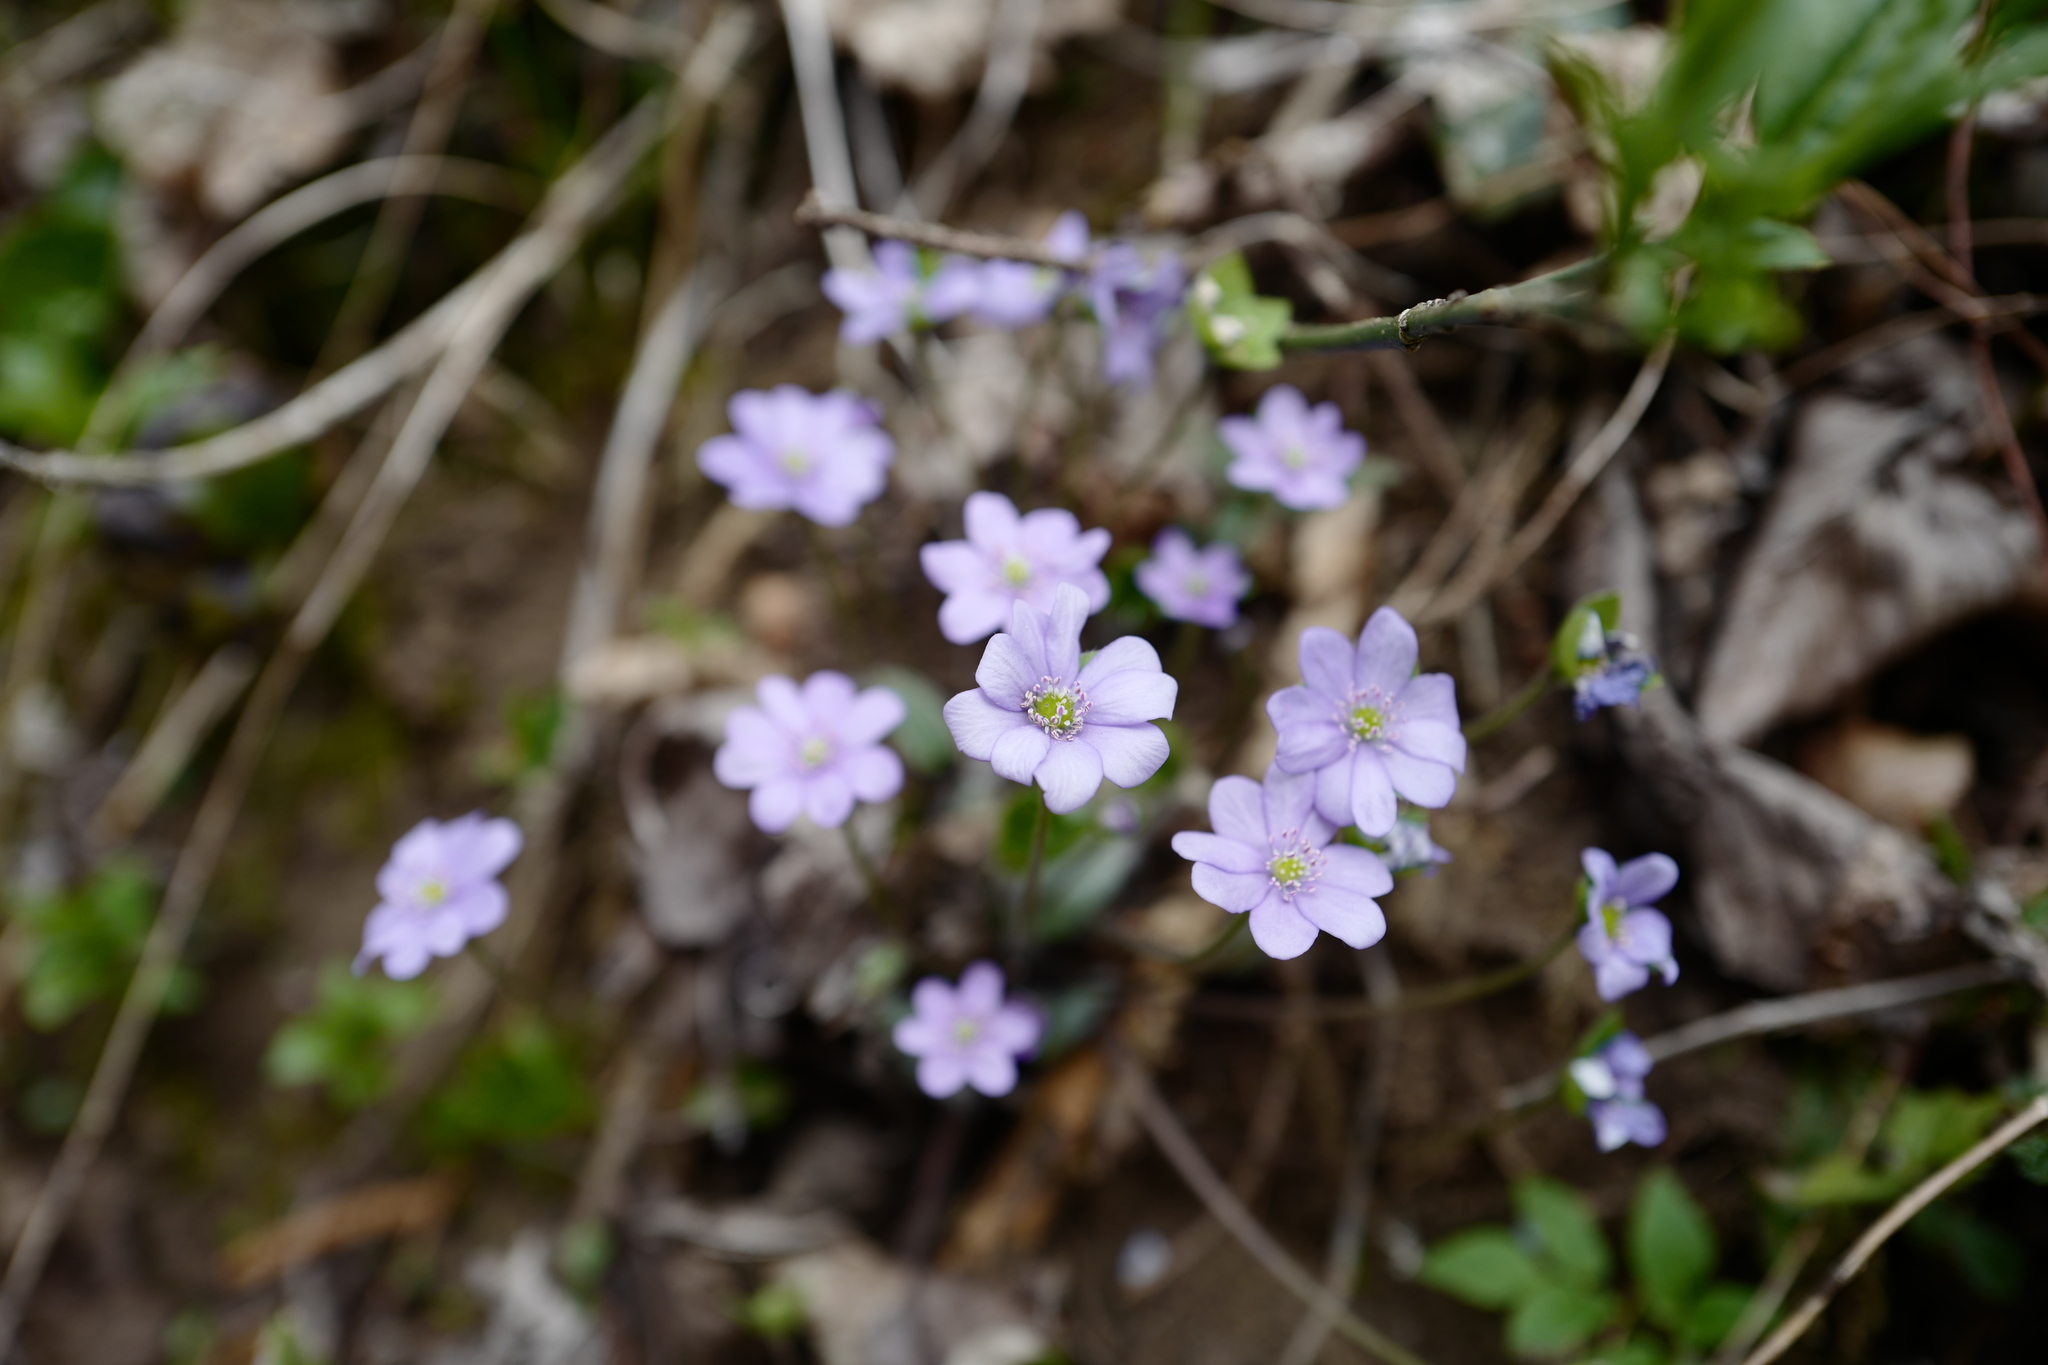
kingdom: Plantae
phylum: Tracheophyta
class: Magnoliopsida
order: Ranunculales
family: Ranunculaceae
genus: Hepatica
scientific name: Hepatica nobilis
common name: Liverleaf
